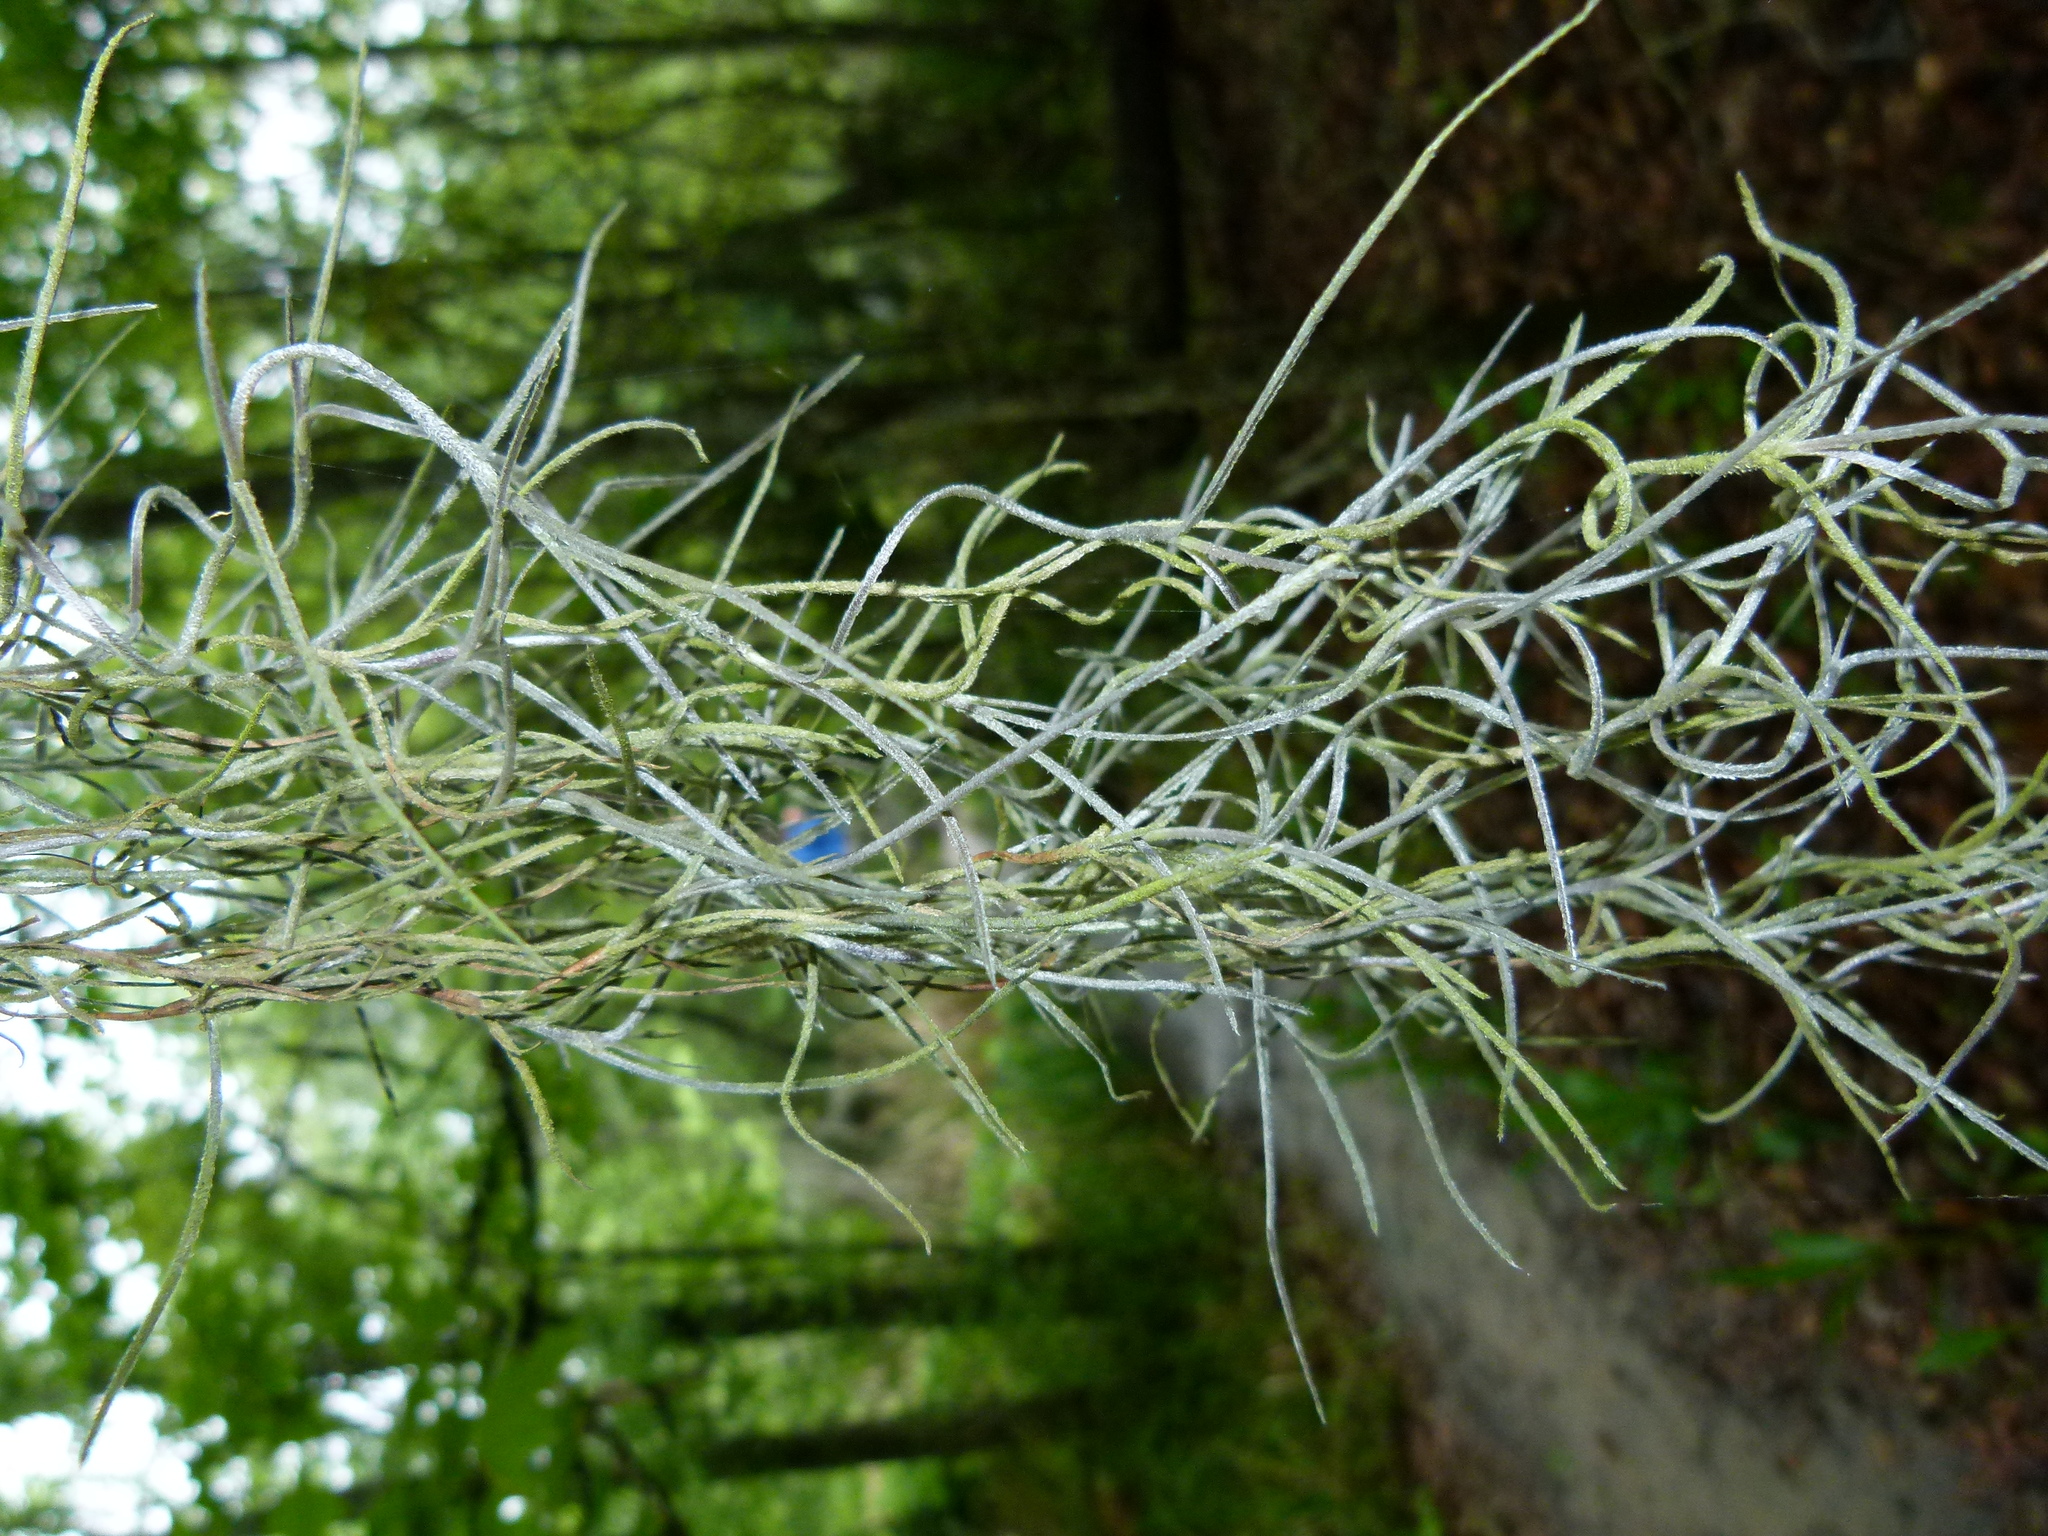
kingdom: Plantae
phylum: Tracheophyta
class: Liliopsida
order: Poales
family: Bromeliaceae
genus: Tillandsia
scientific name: Tillandsia usneoides
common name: Spanish moss
